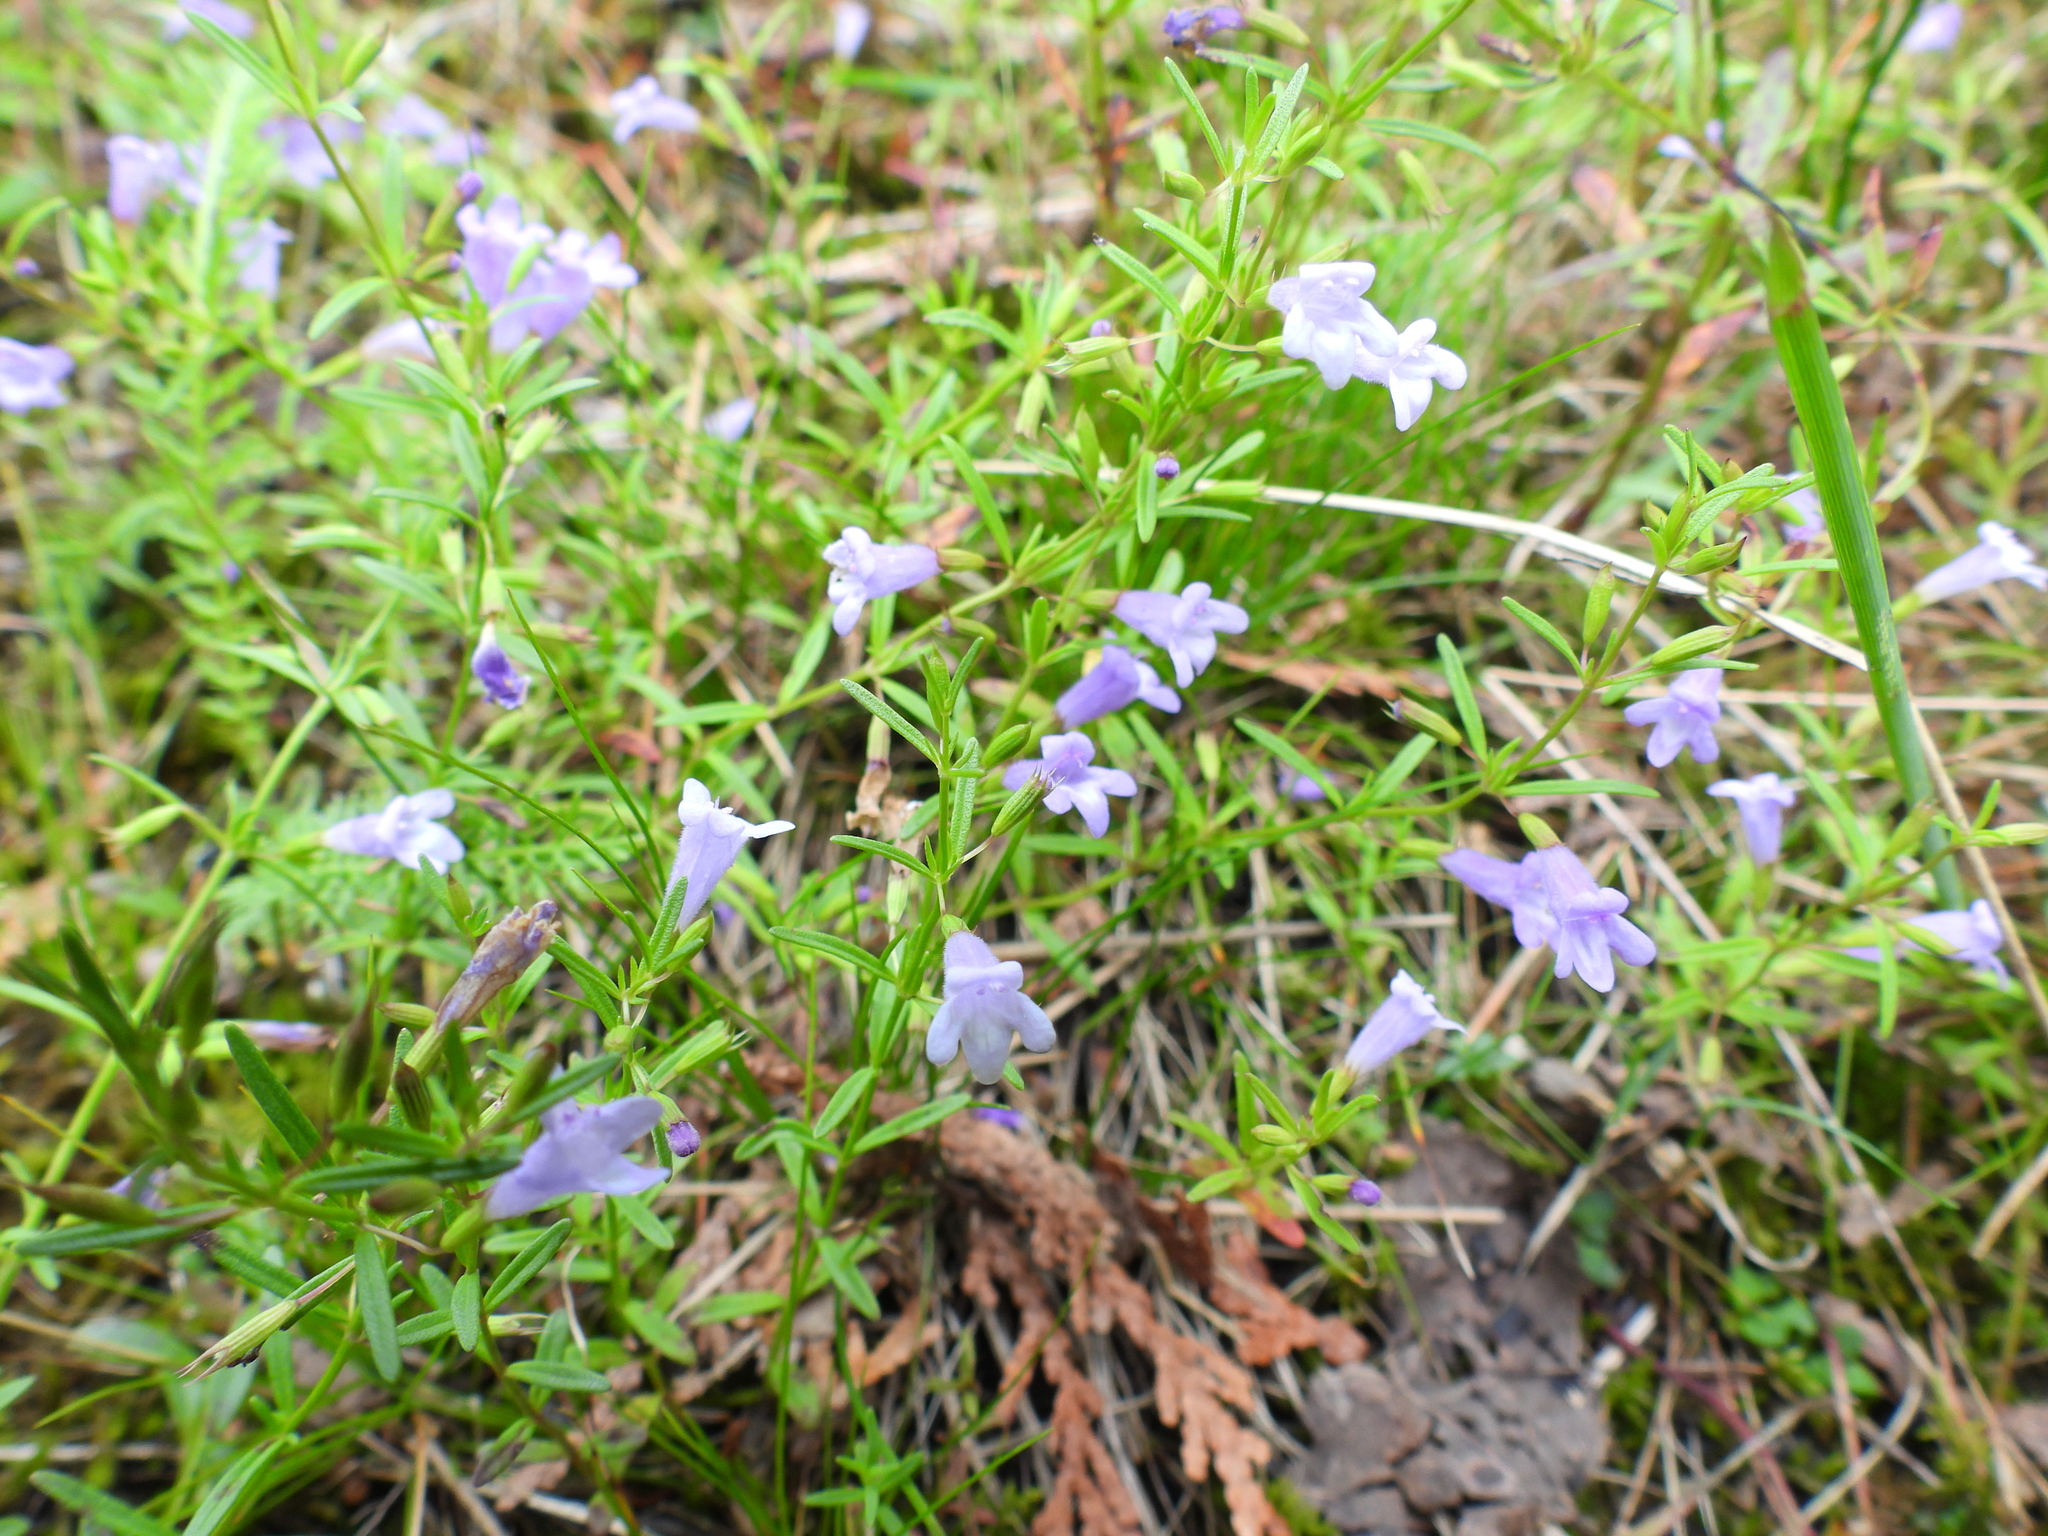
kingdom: Plantae
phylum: Tracheophyta
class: Magnoliopsida
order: Lamiales
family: Lamiaceae
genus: Clinopodium
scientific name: Clinopodium arkansanum
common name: Limestone calamint
